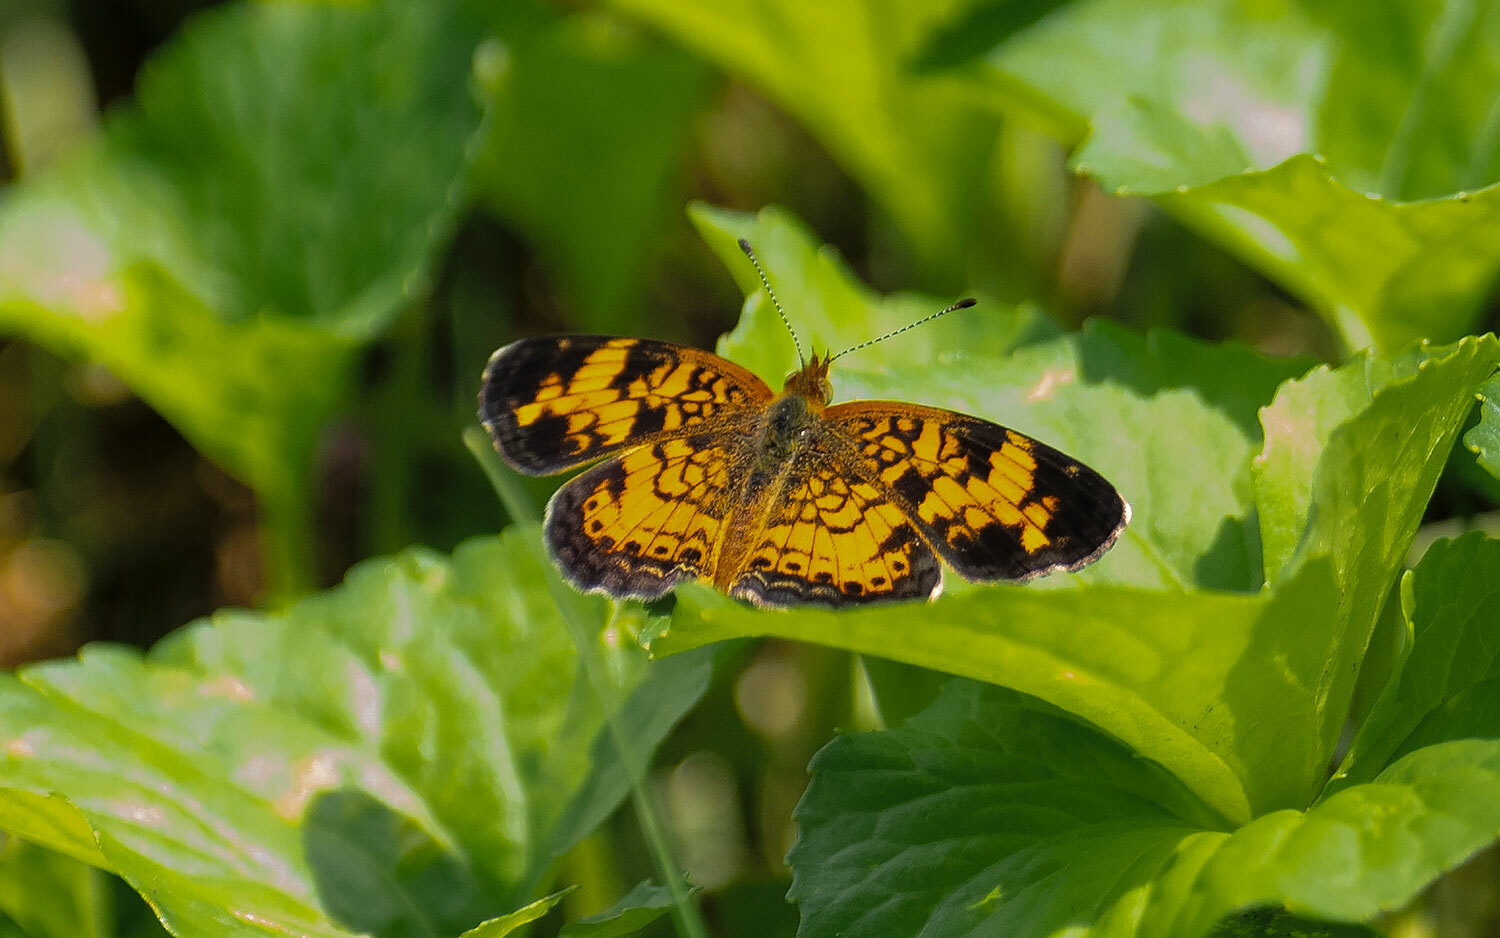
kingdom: Animalia
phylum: Arthropoda
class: Insecta
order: Lepidoptera
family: Nymphalidae
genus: Phyciodes
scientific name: Phyciodes tharos
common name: Pearl crescent
